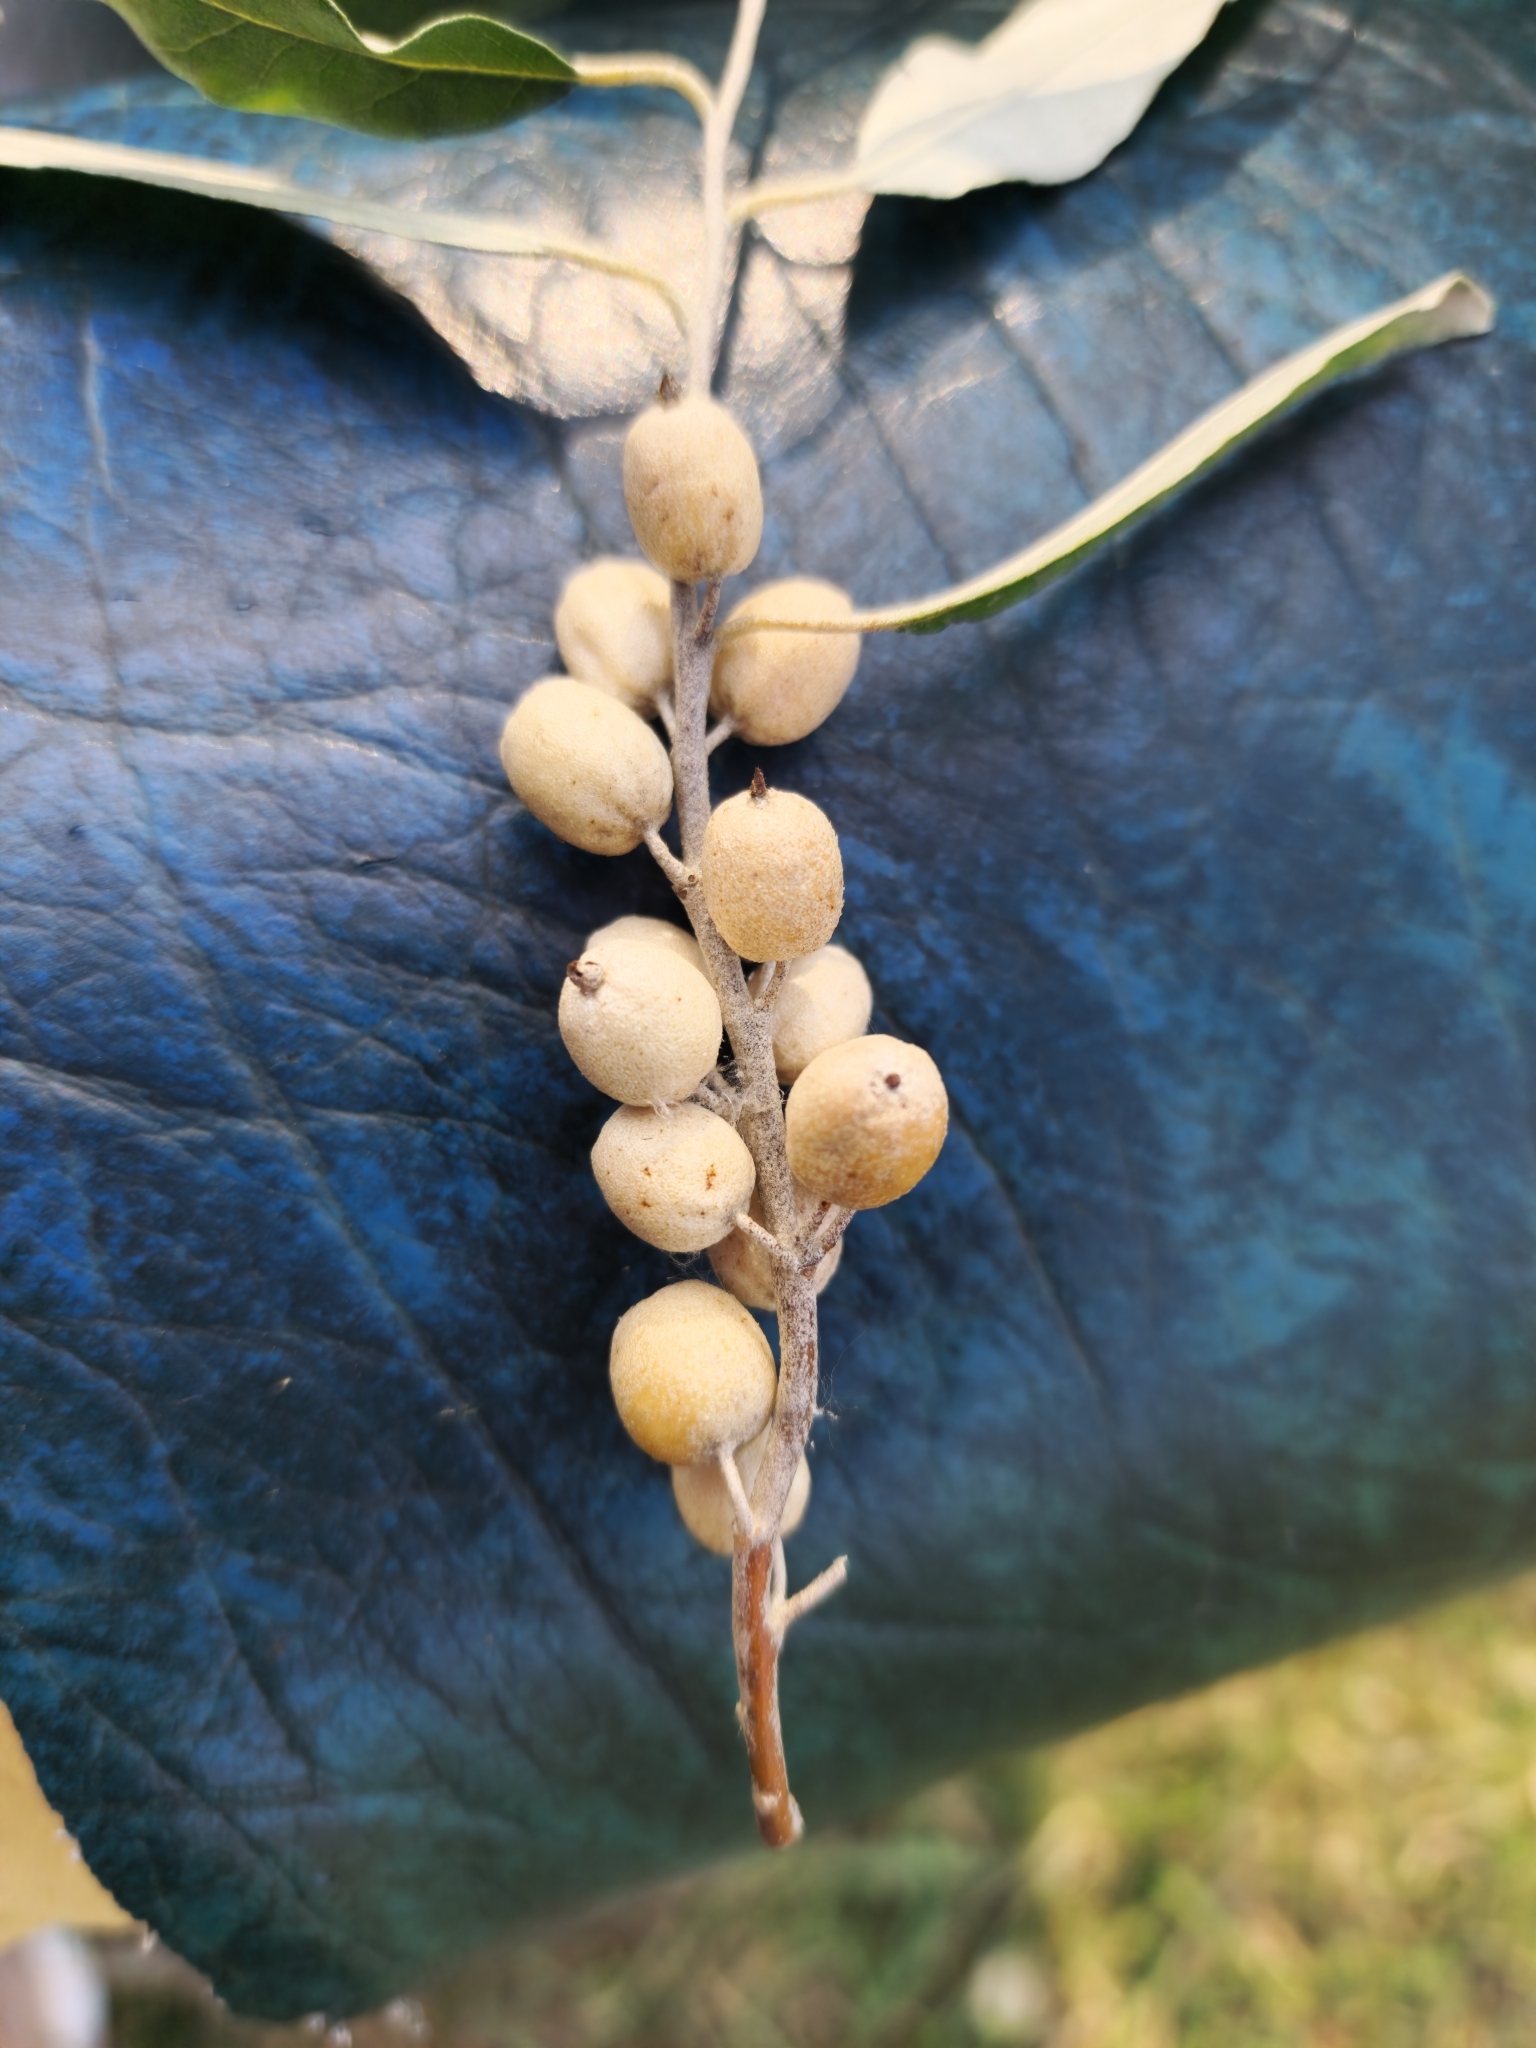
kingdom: Plantae
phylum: Tracheophyta
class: Magnoliopsida
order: Rosales
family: Elaeagnaceae
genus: Elaeagnus
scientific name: Elaeagnus angustifolia
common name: Russian olive
